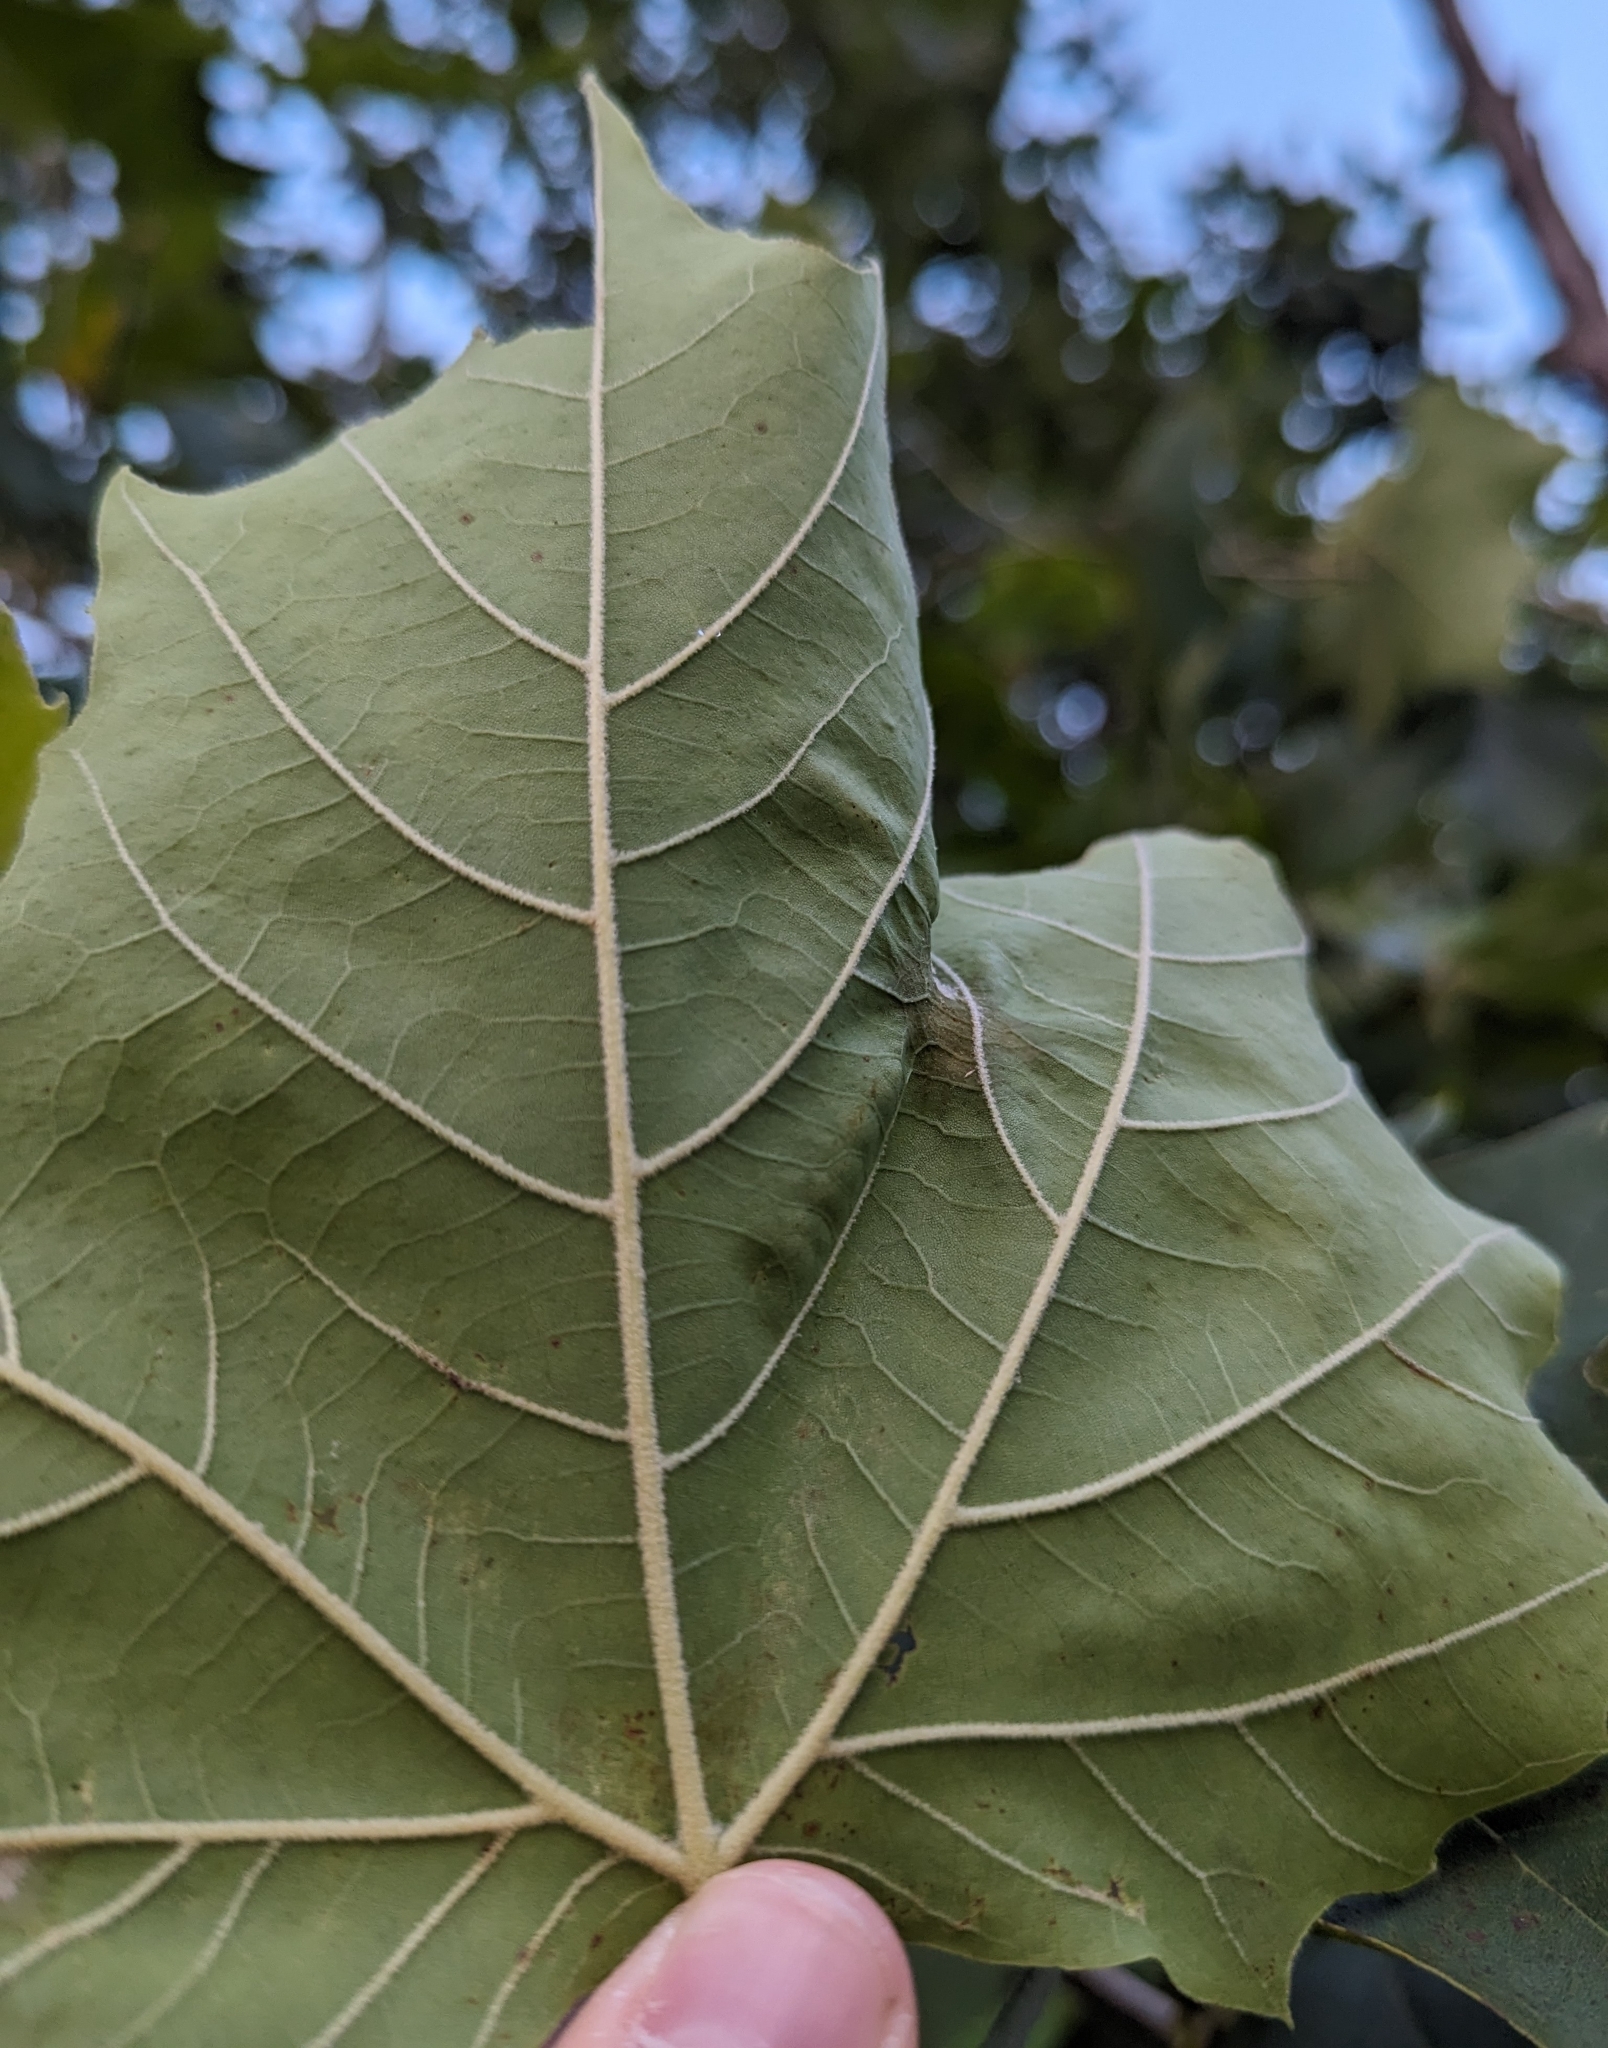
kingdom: Plantae
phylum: Tracheophyta
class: Magnoliopsida
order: Proteales
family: Platanaceae
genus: Platanus
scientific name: Platanus occidentalis
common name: American sycamore
